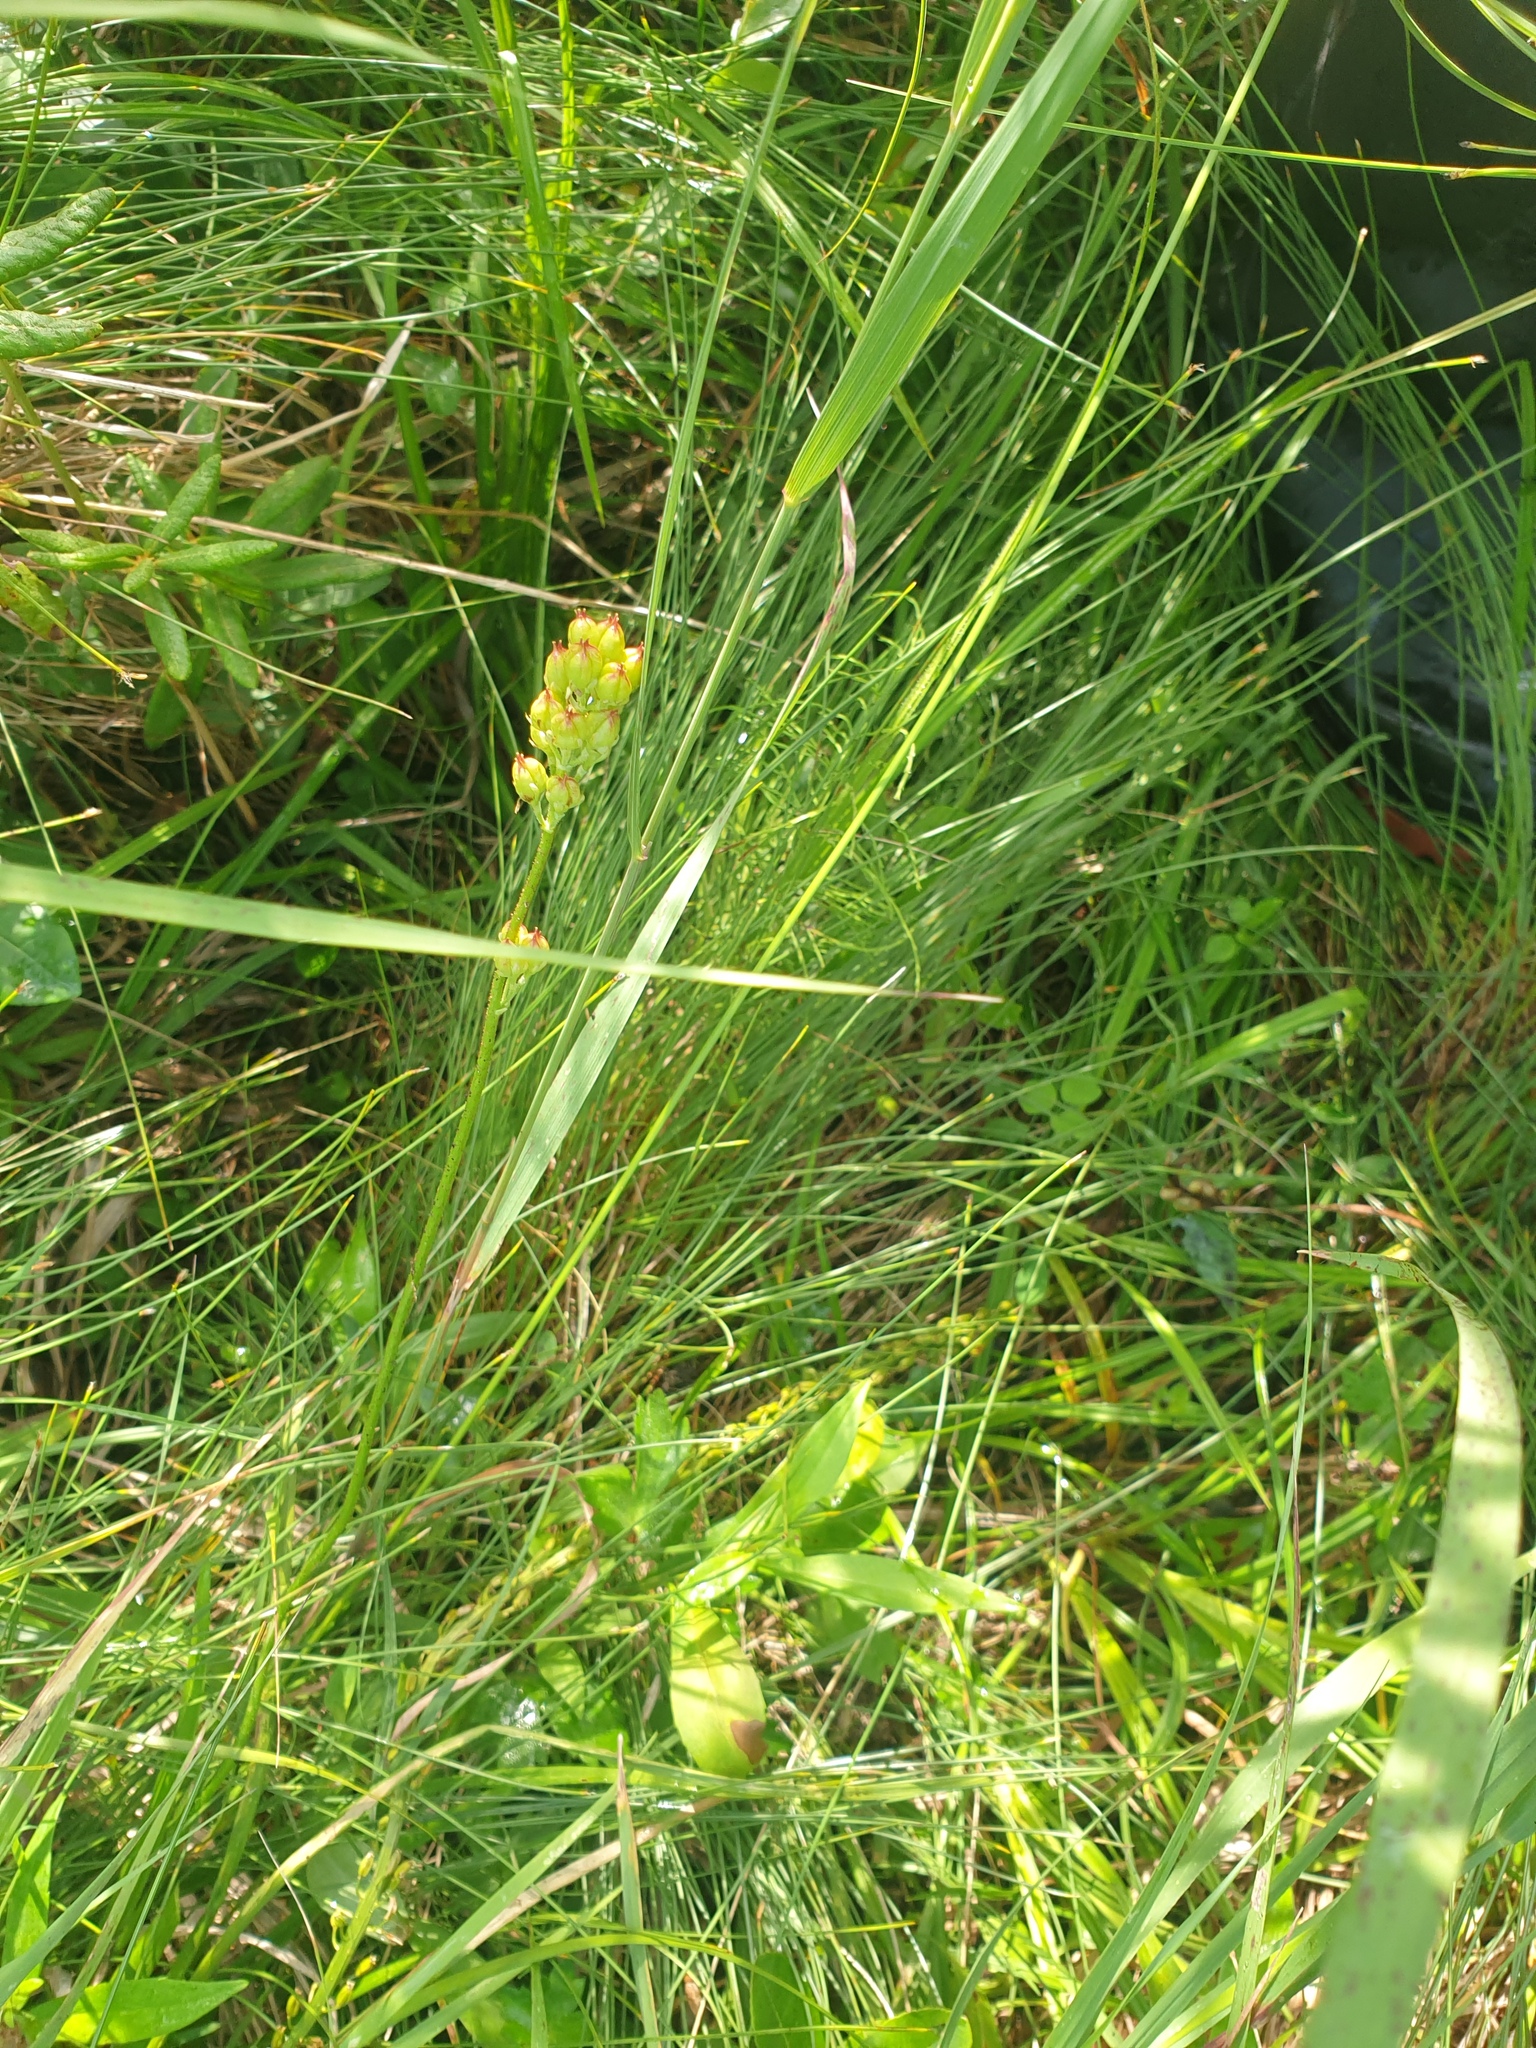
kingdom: Plantae
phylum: Tracheophyta
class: Liliopsida
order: Alismatales
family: Tofieldiaceae
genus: Triantha
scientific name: Triantha glutinosa
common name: Glutinous tofieldia
